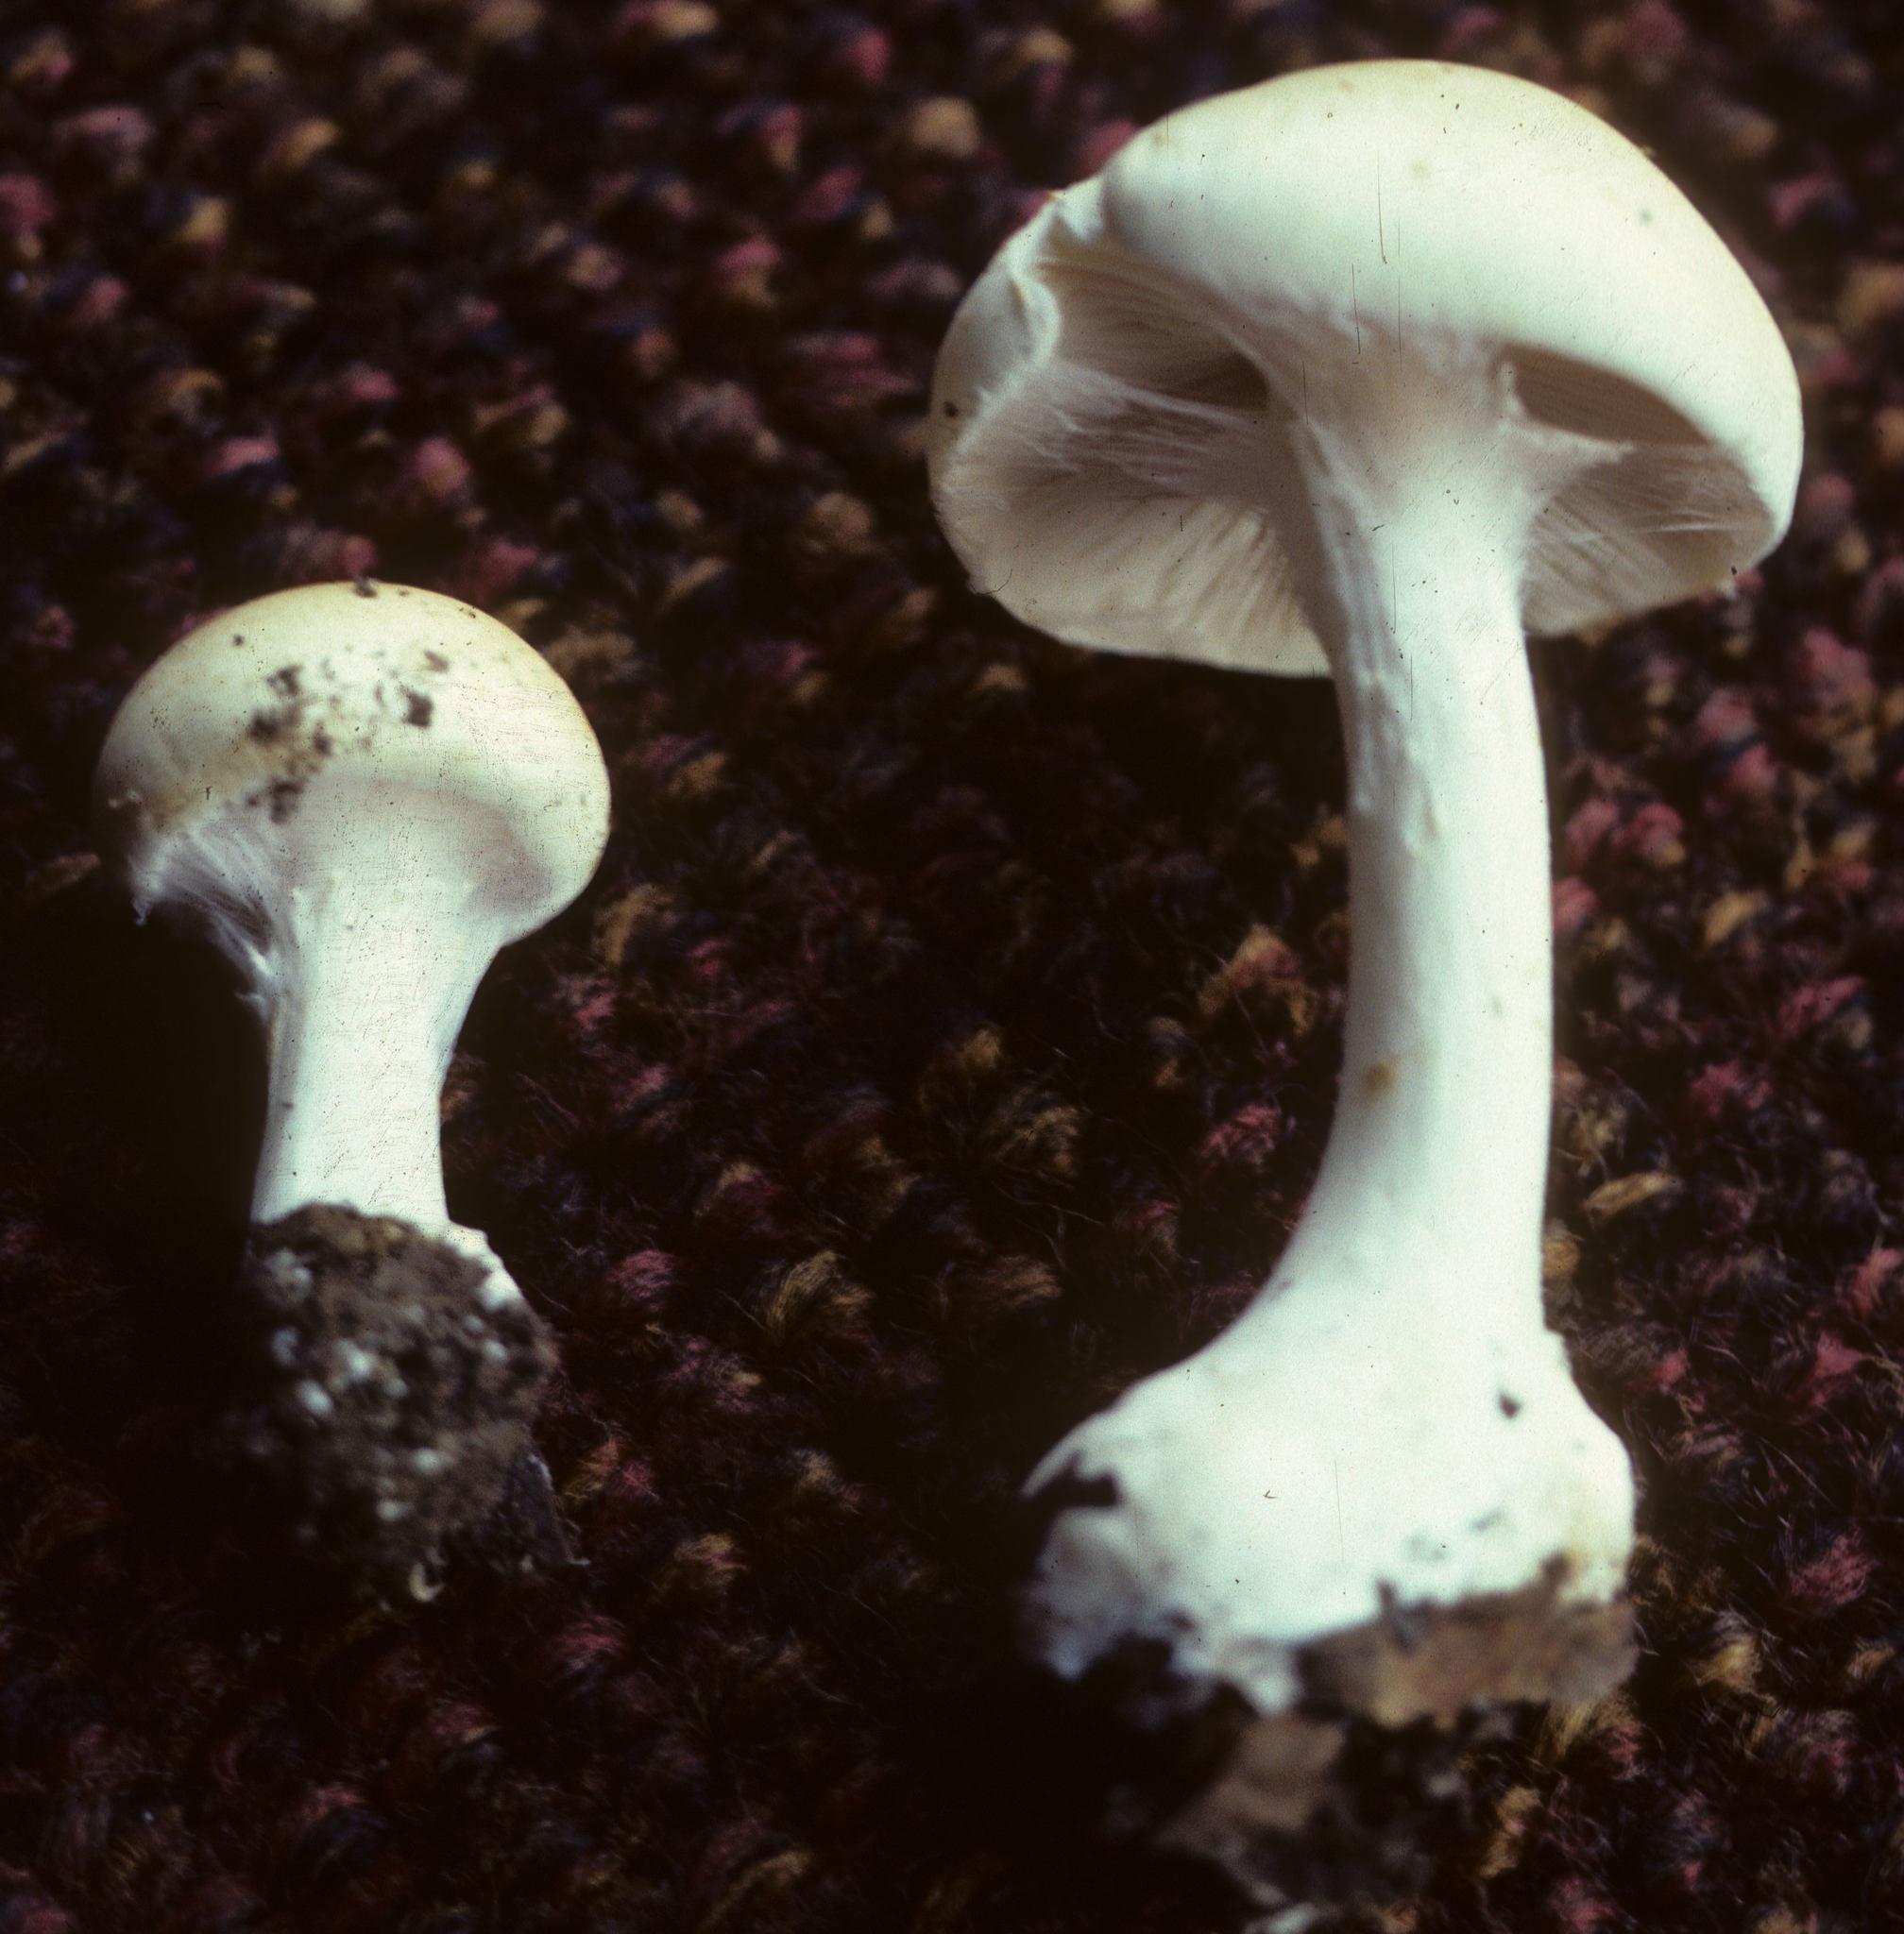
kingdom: Fungi
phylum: Basidiomycota
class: Agaricomycetes
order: Agaricales
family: Inocybaceae
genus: Inocybe
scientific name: Inocybe geophylla
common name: White fibrecap
